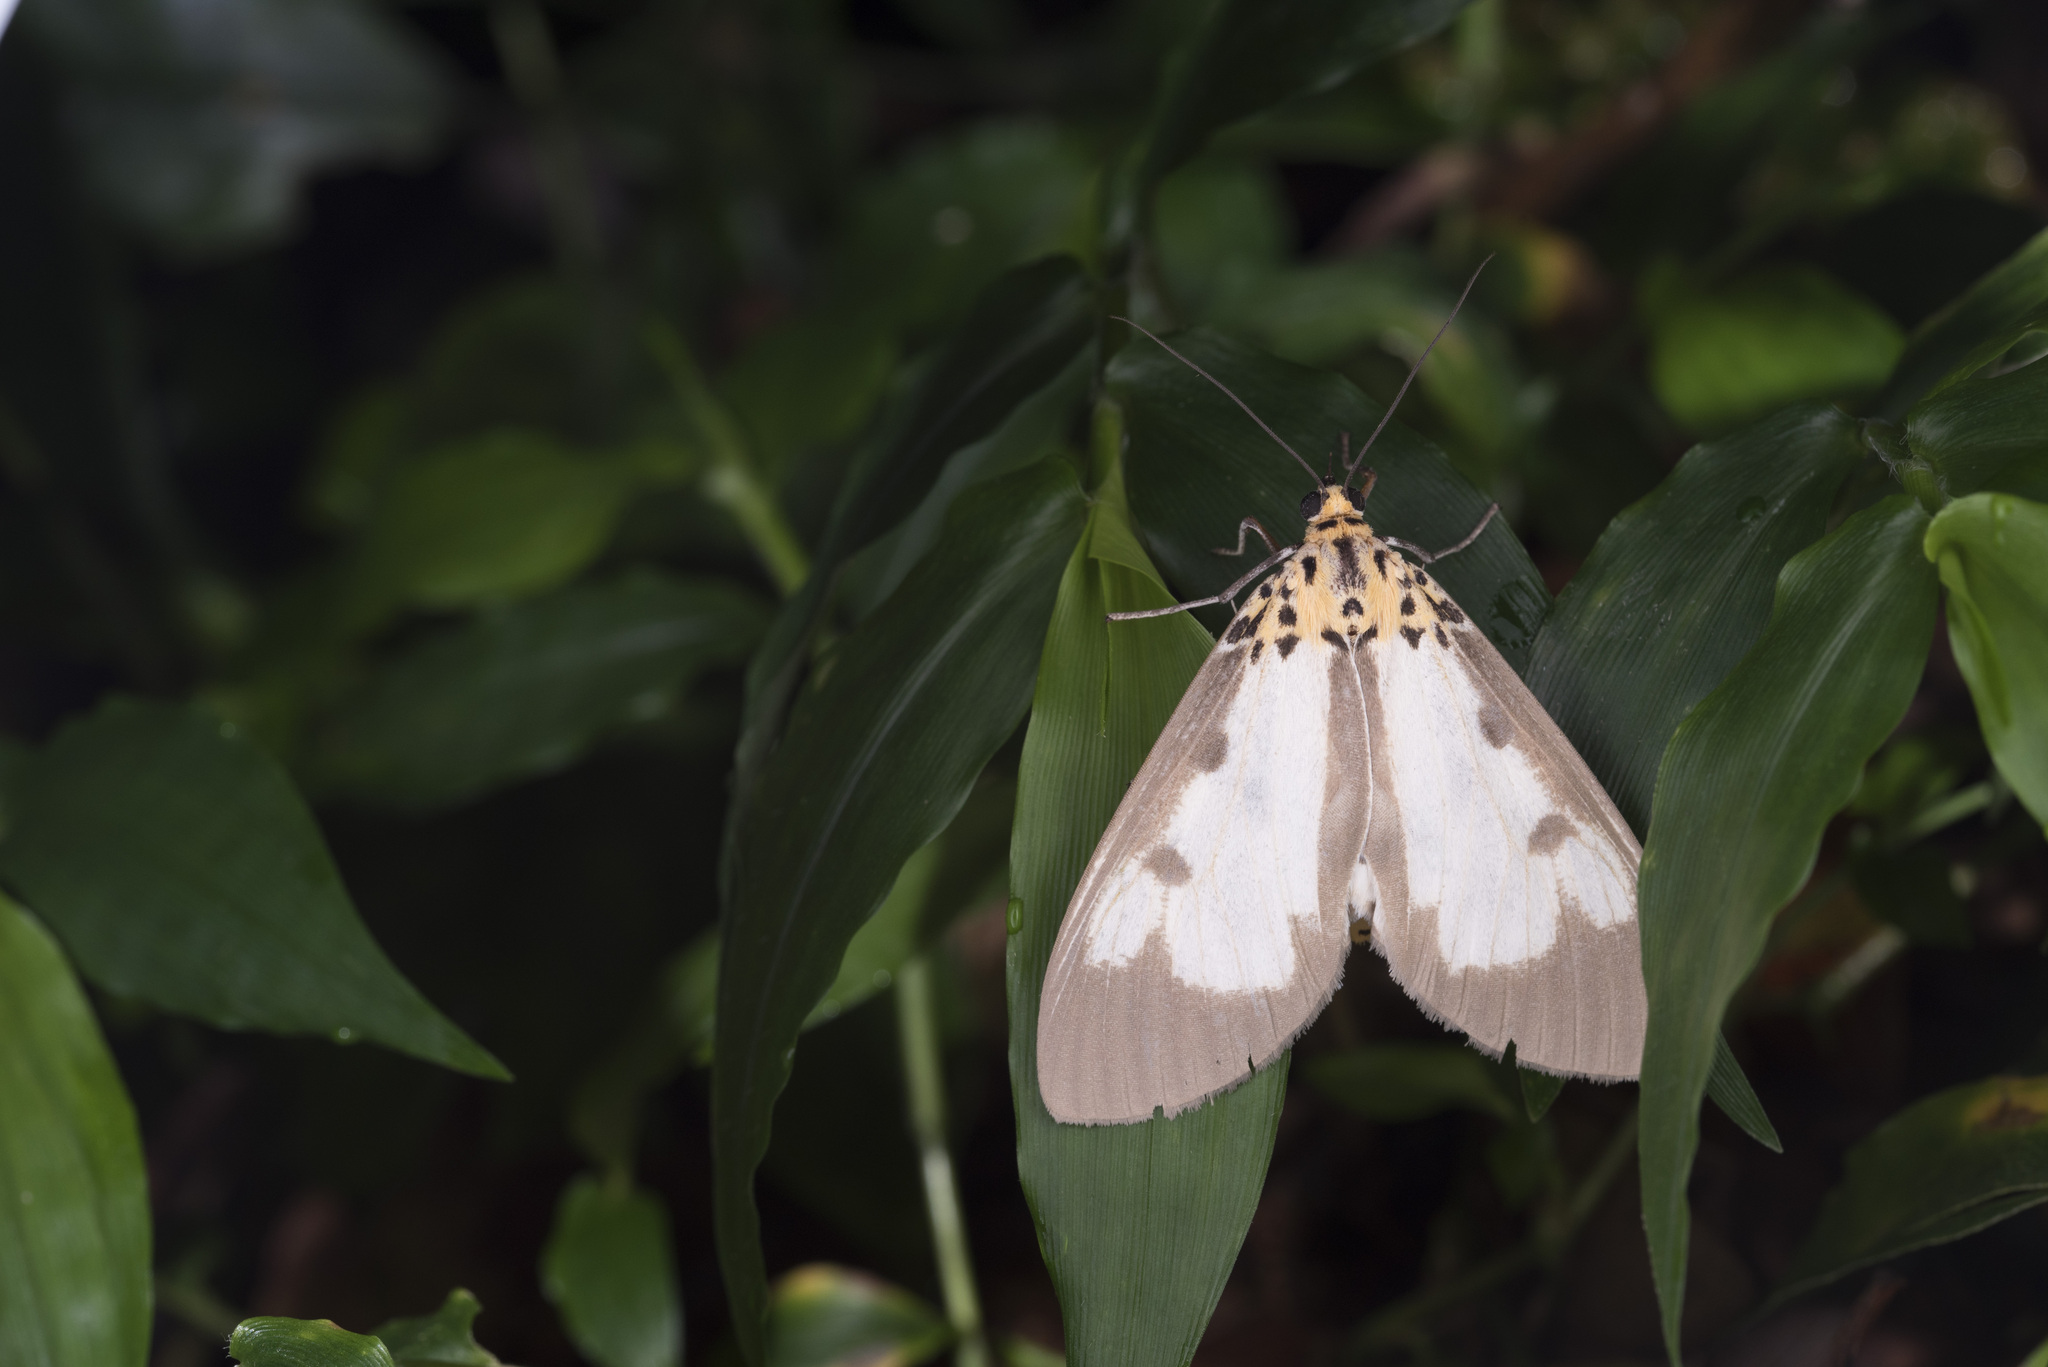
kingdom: Animalia
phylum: Arthropoda
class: Insecta
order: Lepidoptera
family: Erebidae
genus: Asota
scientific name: Asota plana
